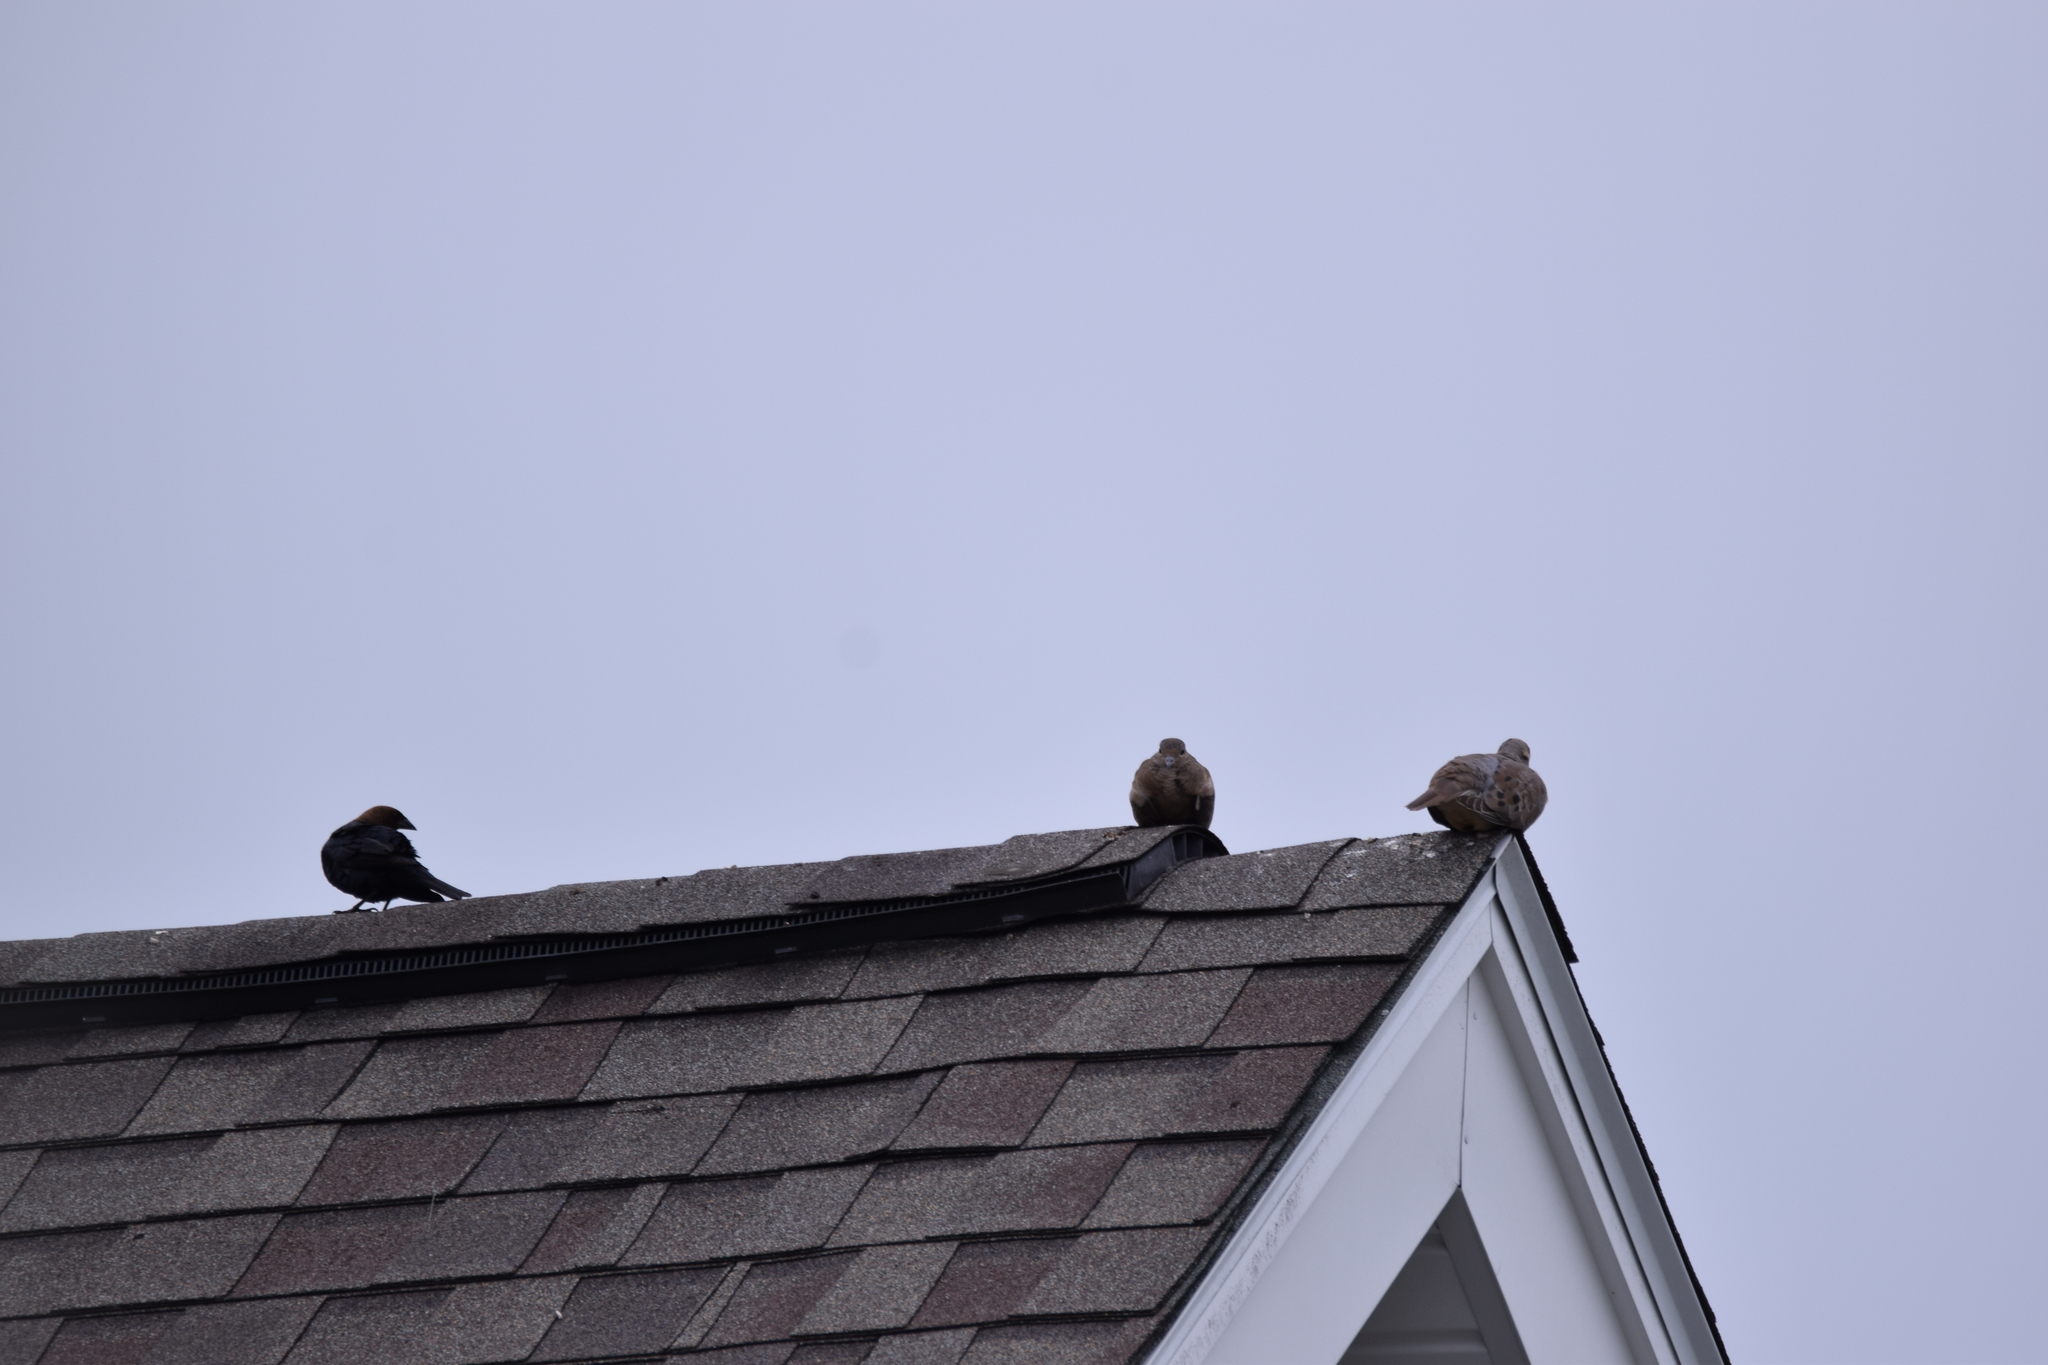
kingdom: Animalia
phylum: Chordata
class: Aves
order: Passeriformes
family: Icteridae
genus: Molothrus
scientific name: Molothrus ater
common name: Brown-headed cowbird
